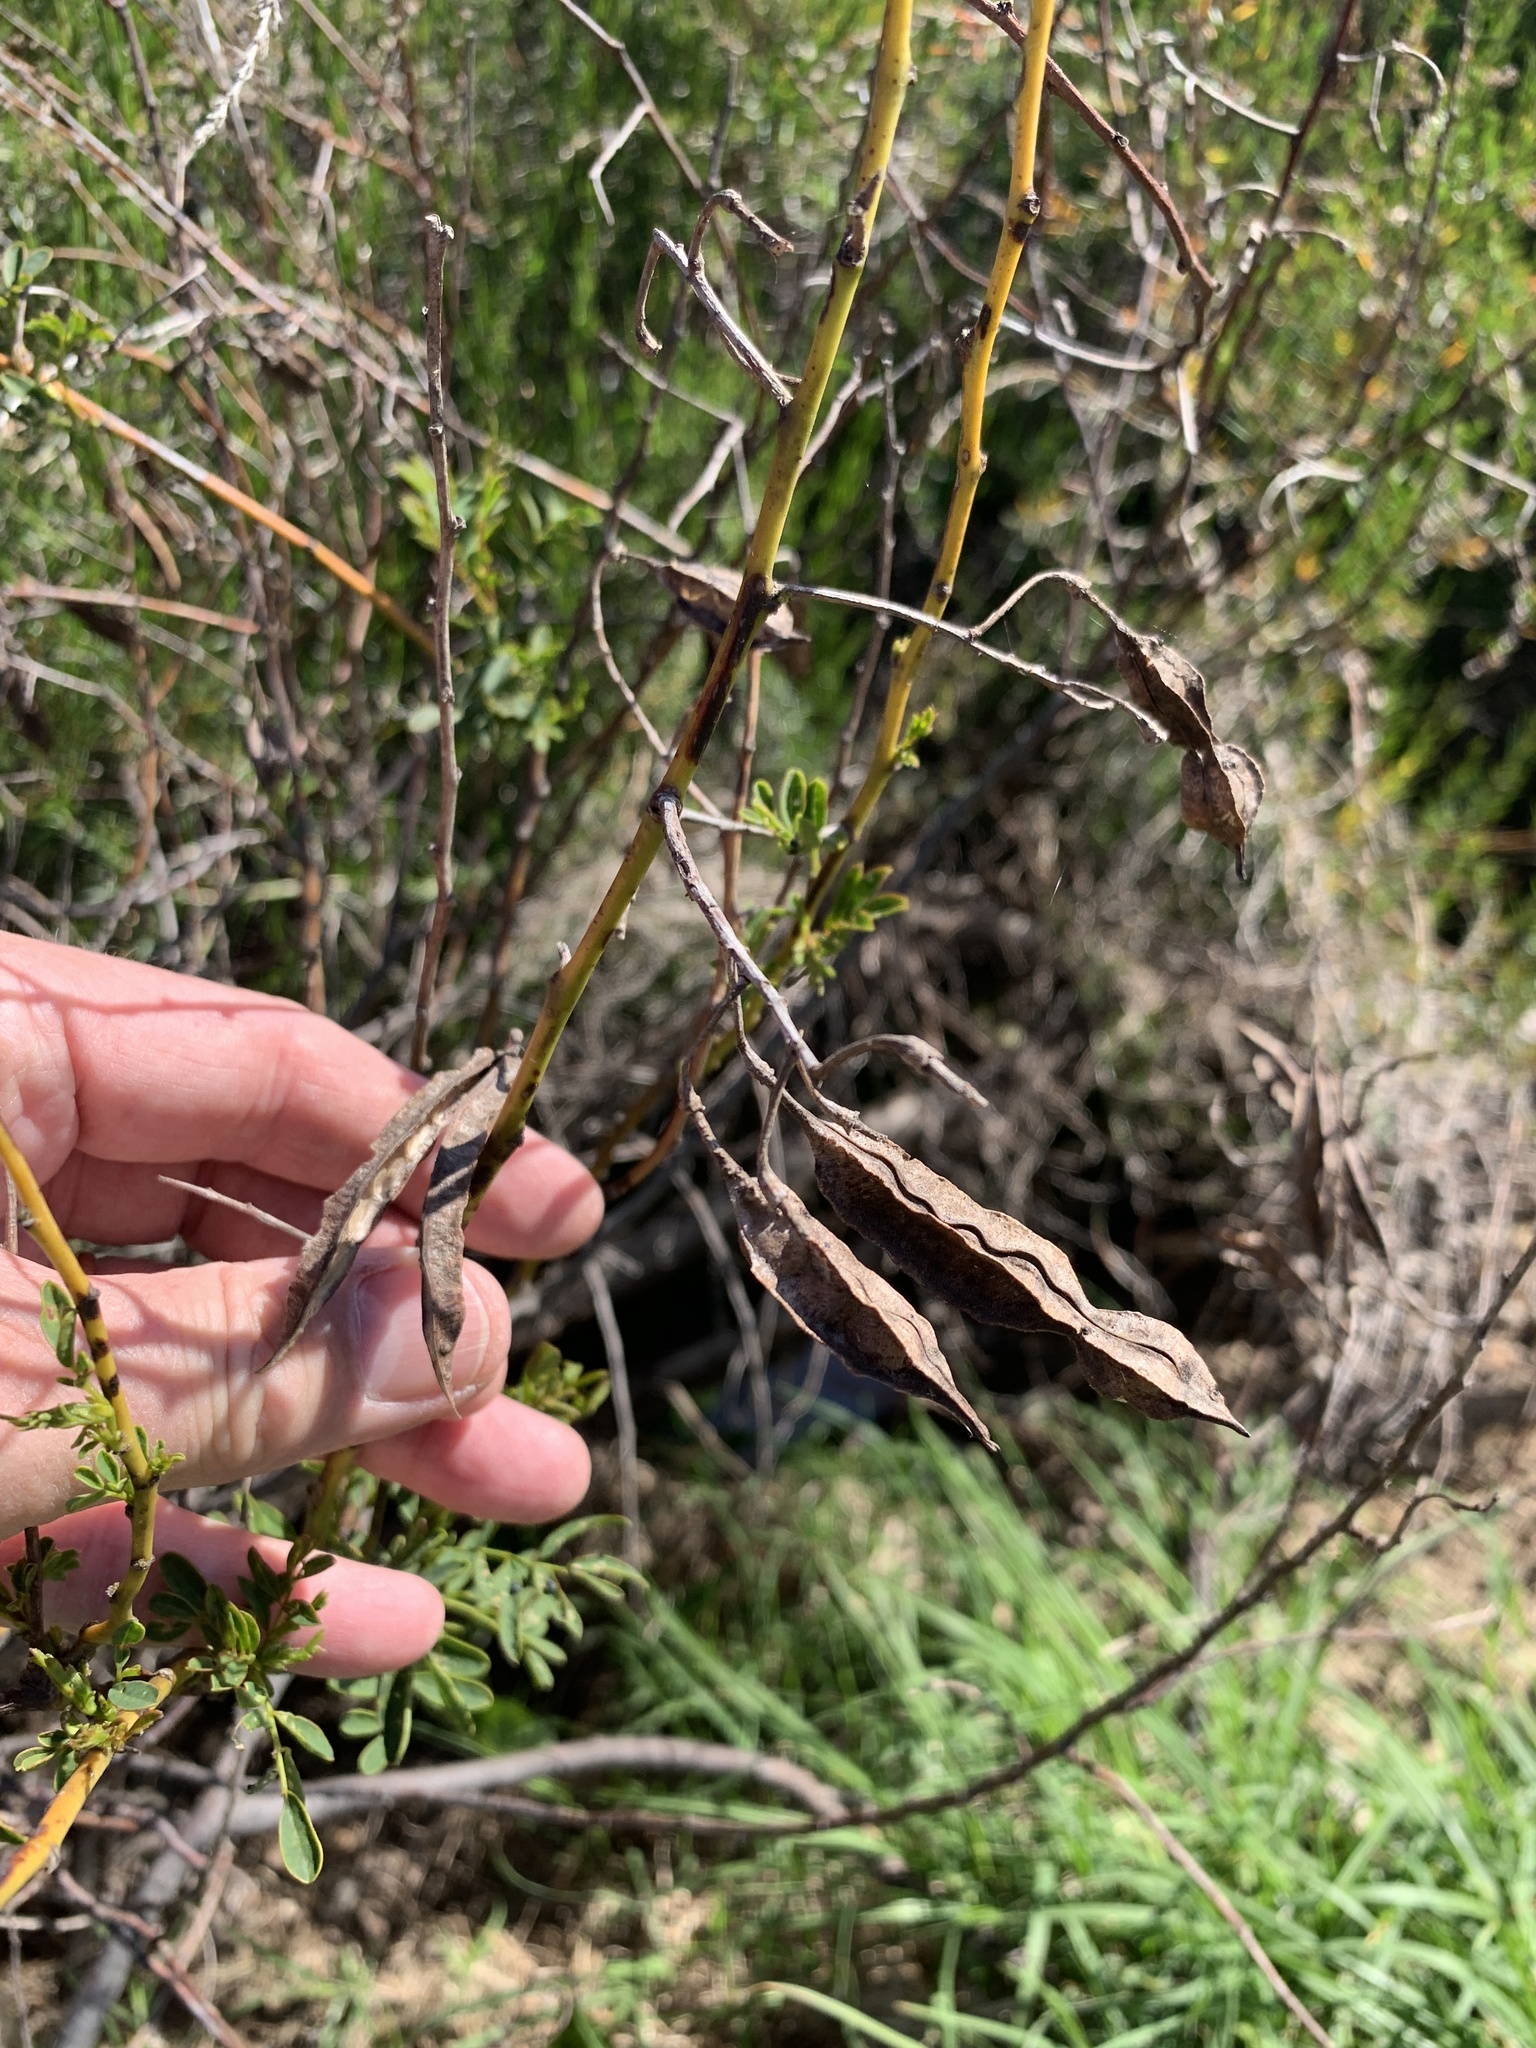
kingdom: Plantae
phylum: Tracheophyta
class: Magnoliopsida
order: Fabales
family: Fabaceae
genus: Sesbania
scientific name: Sesbania punicea
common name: Rattlebox
